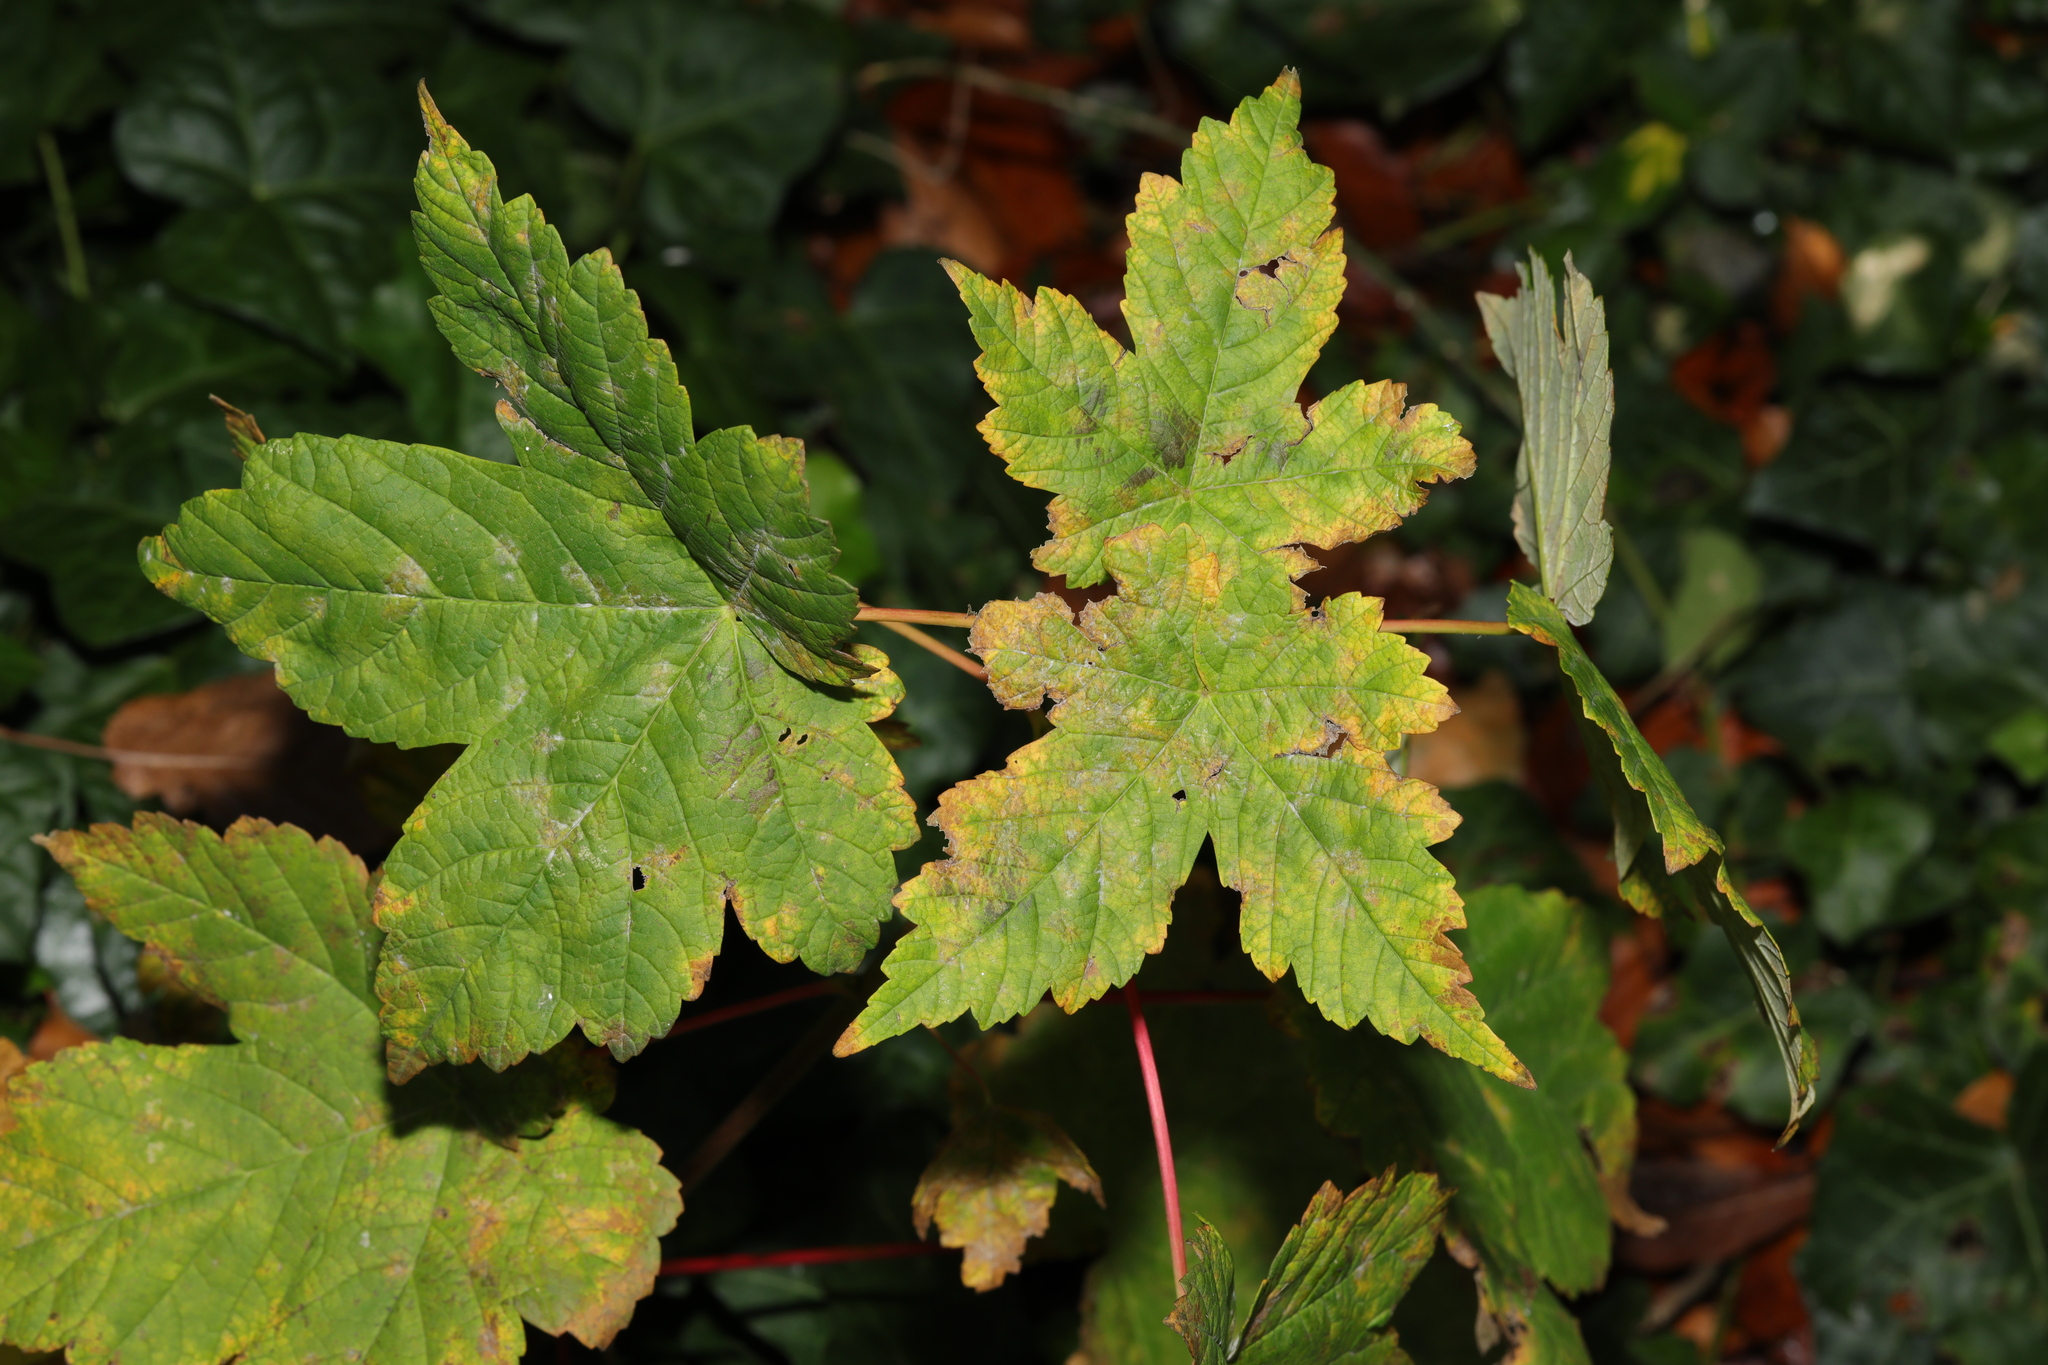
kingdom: Plantae
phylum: Tracheophyta
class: Magnoliopsida
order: Sapindales
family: Sapindaceae
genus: Acer
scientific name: Acer pseudoplatanus
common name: Sycamore
